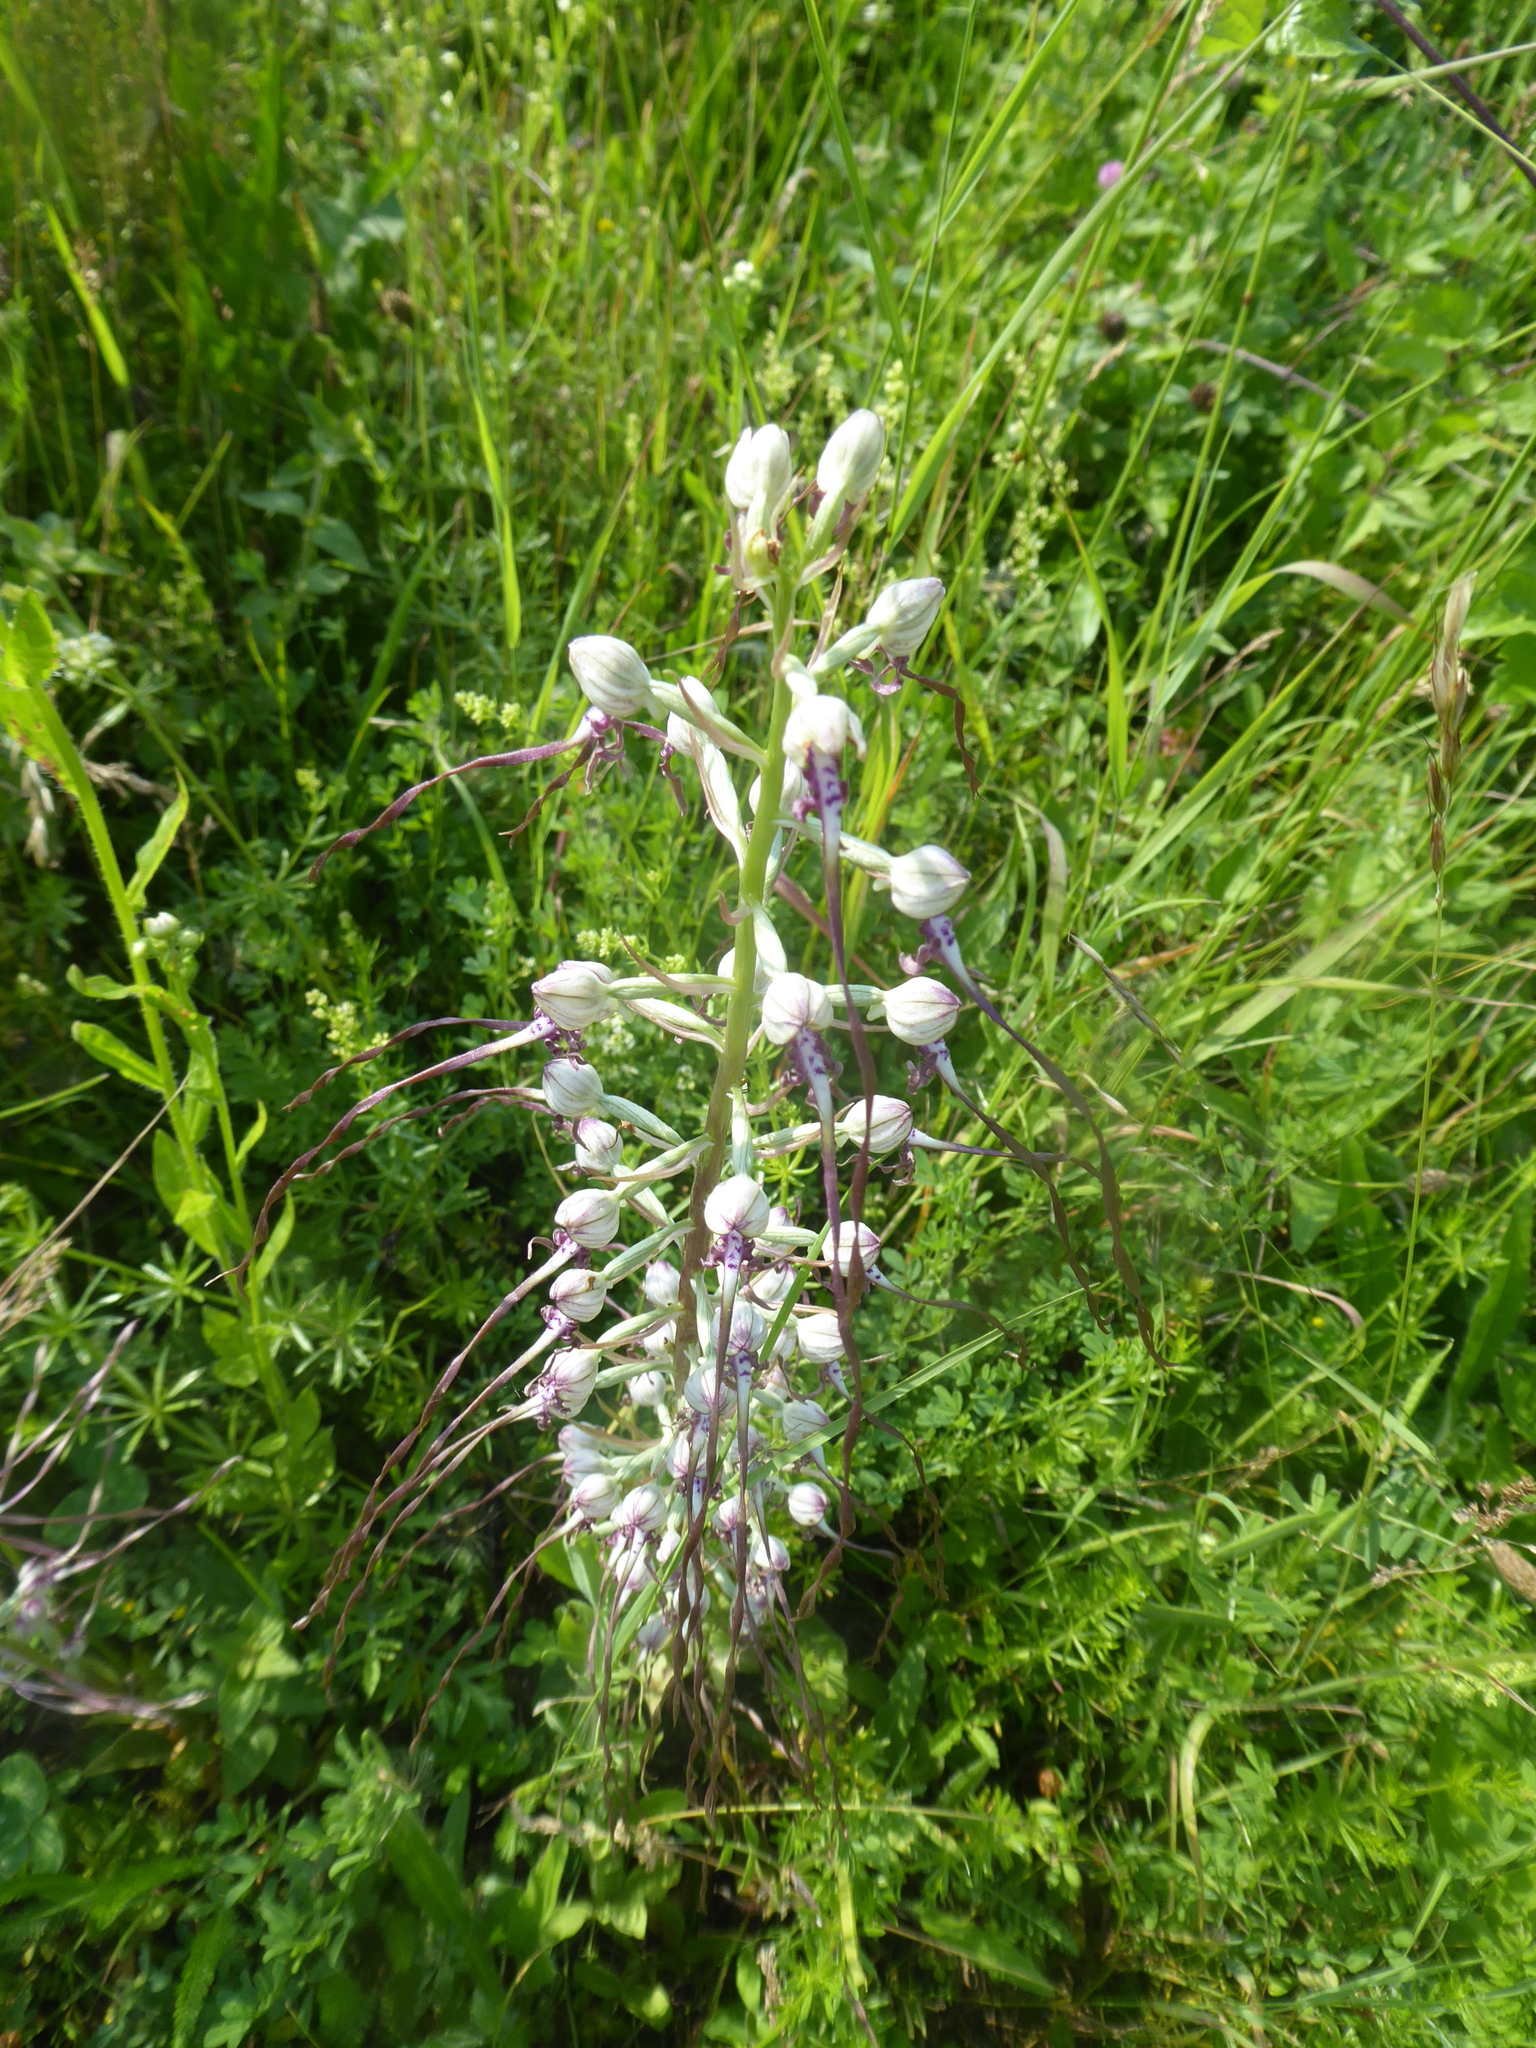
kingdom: Plantae
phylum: Tracheophyta
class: Liliopsida
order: Asparagales
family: Orchidaceae
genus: Himantoglossum
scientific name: Himantoglossum adriaticum
